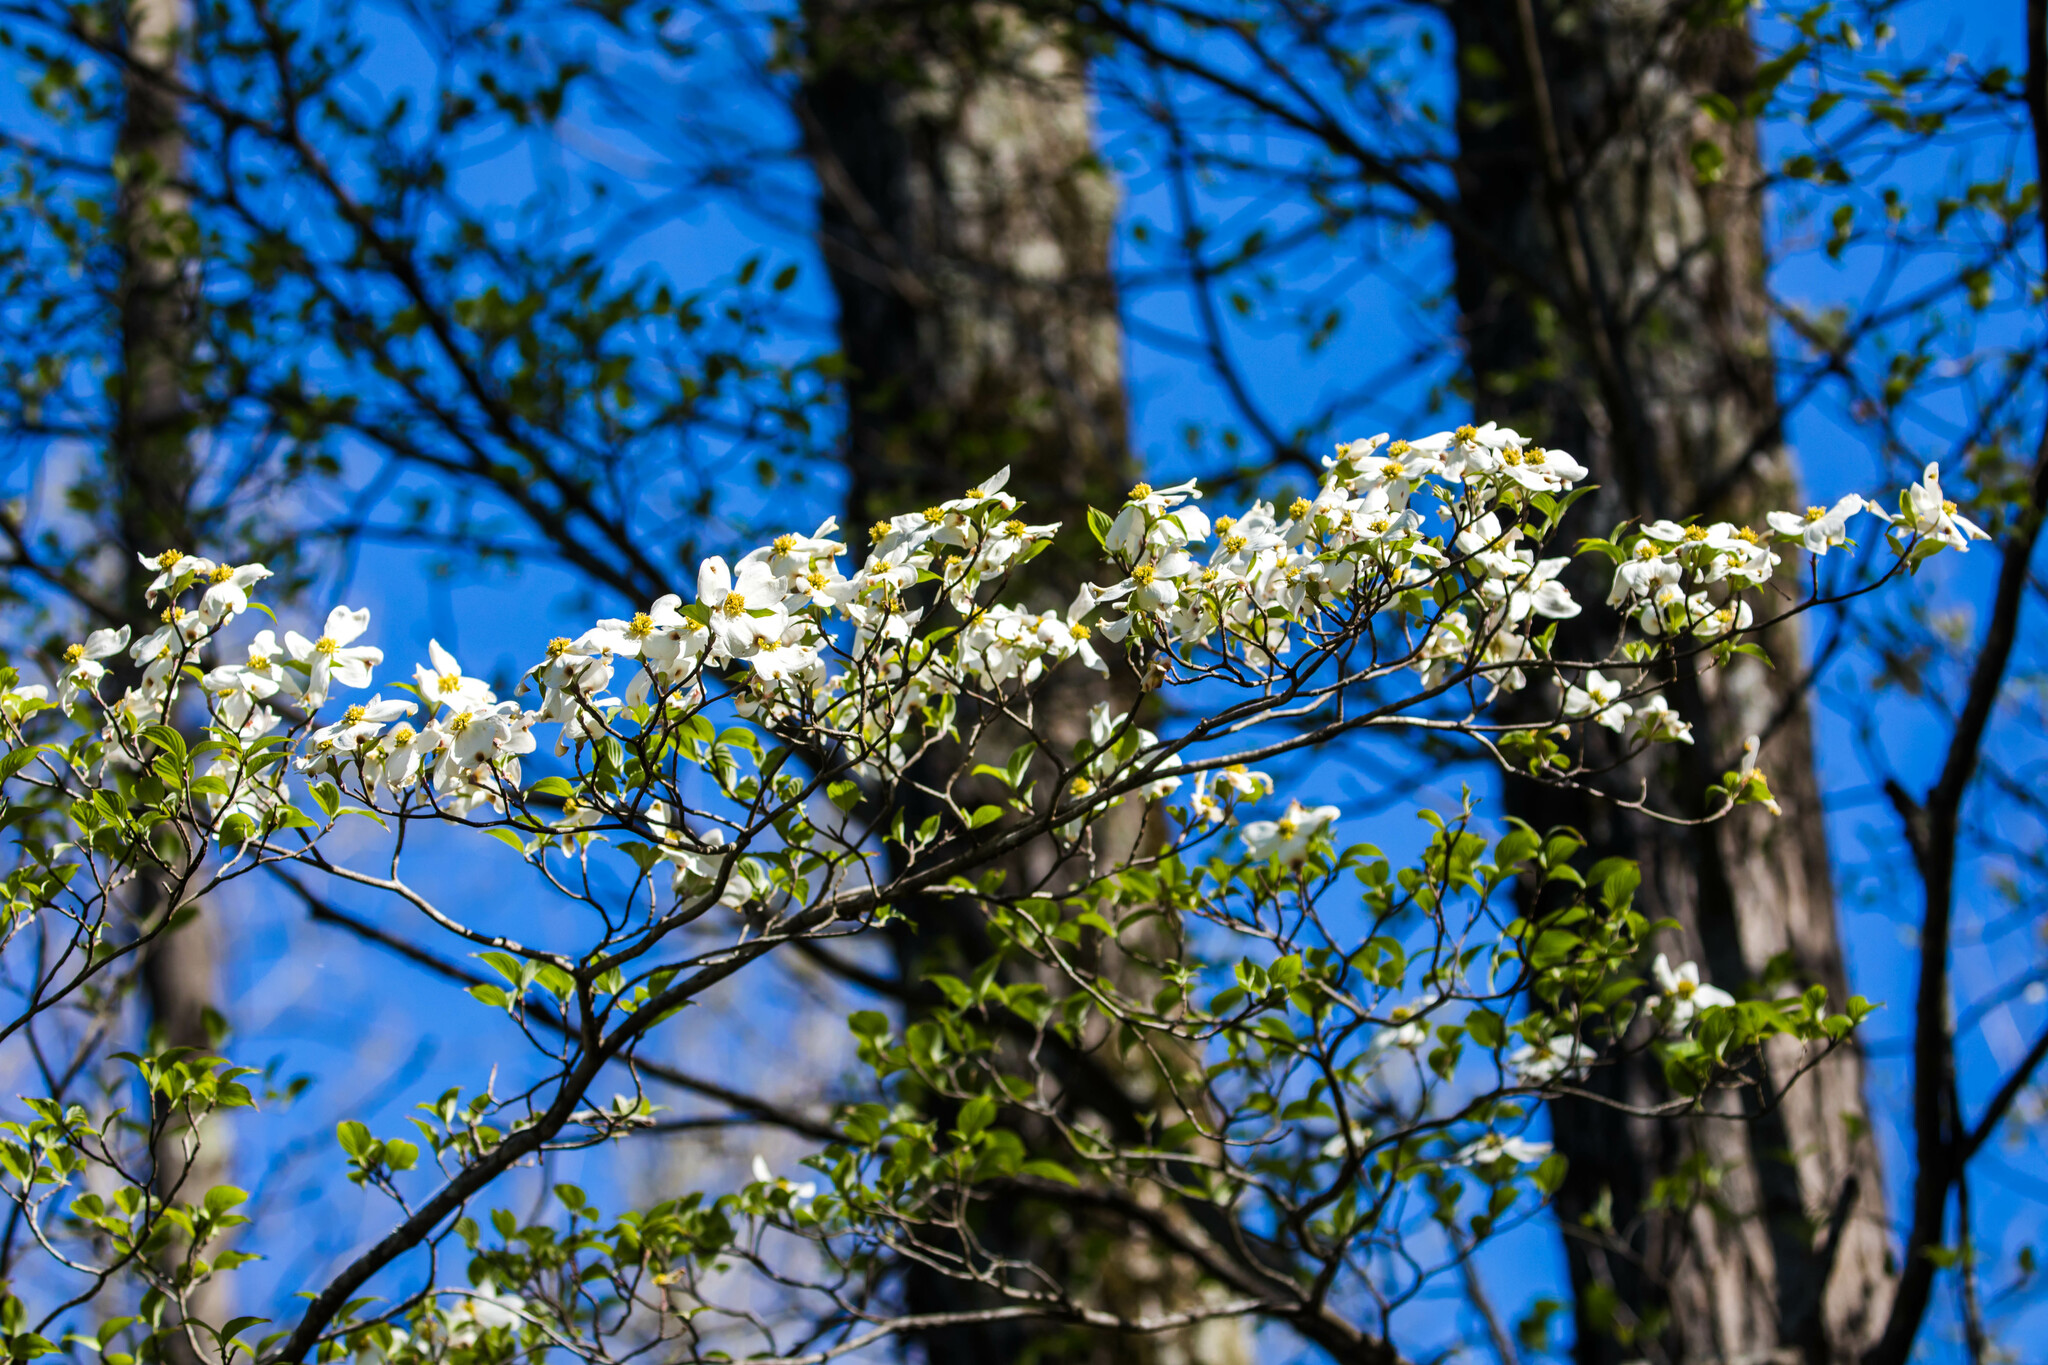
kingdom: Plantae
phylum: Tracheophyta
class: Magnoliopsida
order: Cornales
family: Cornaceae
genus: Cornus
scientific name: Cornus florida
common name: Flowering dogwood
